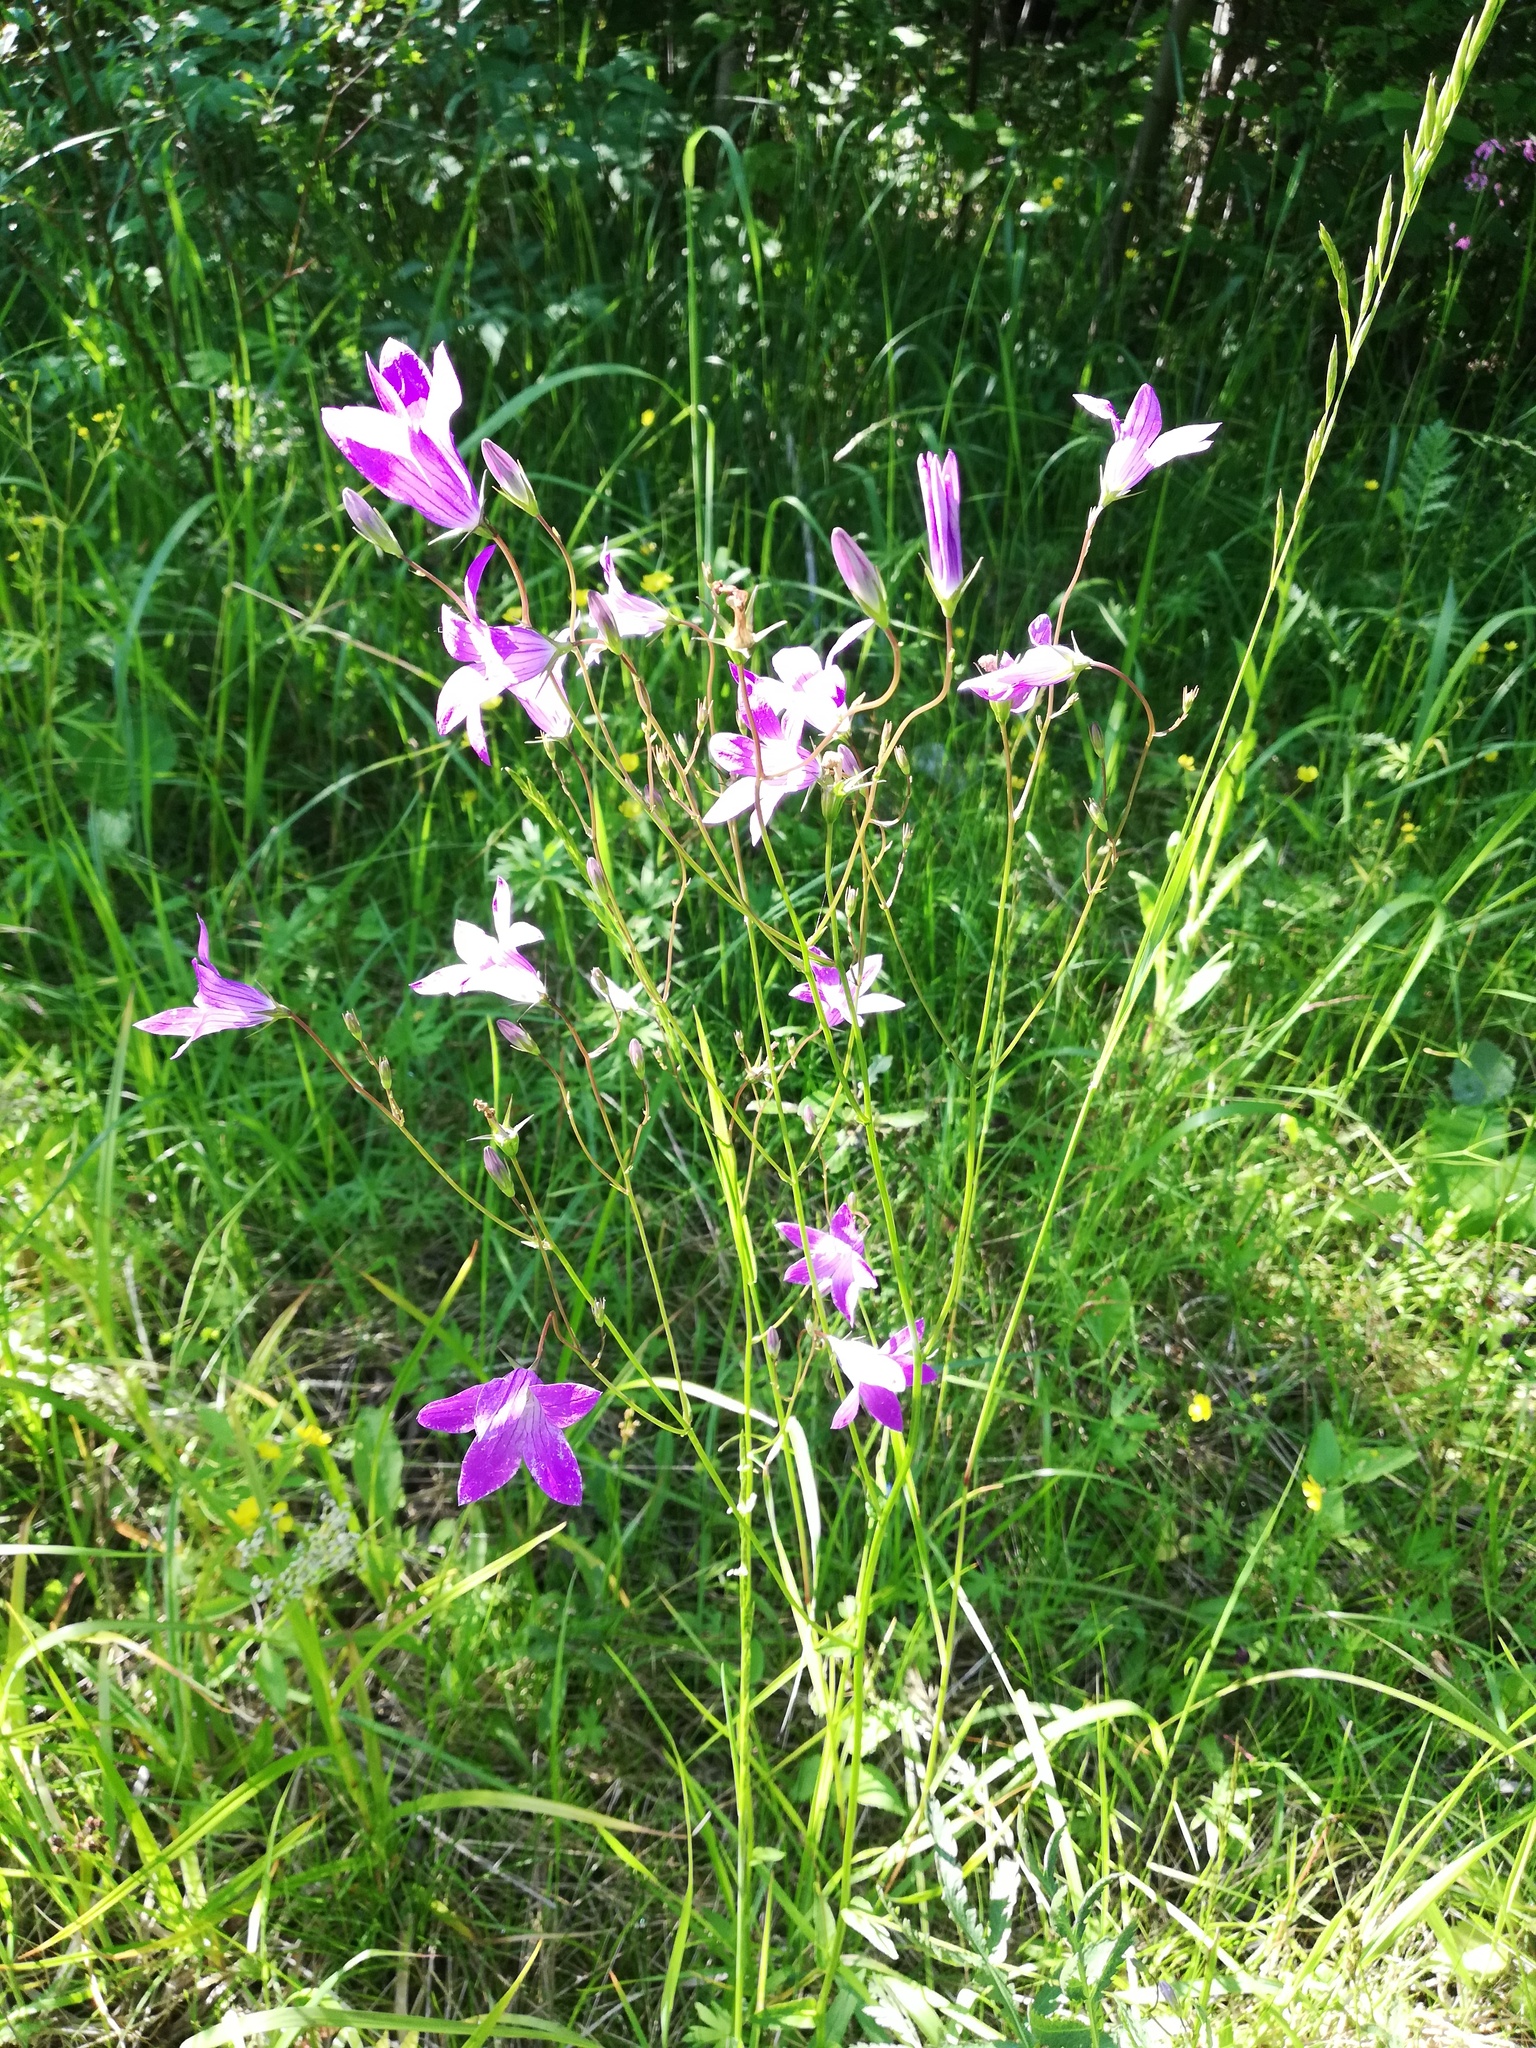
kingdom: Plantae
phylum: Tracheophyta
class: Magnoliopsida
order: Asterales
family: Campanulaceae
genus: Campanula
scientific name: Campanula patula
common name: Spreading bellflower
